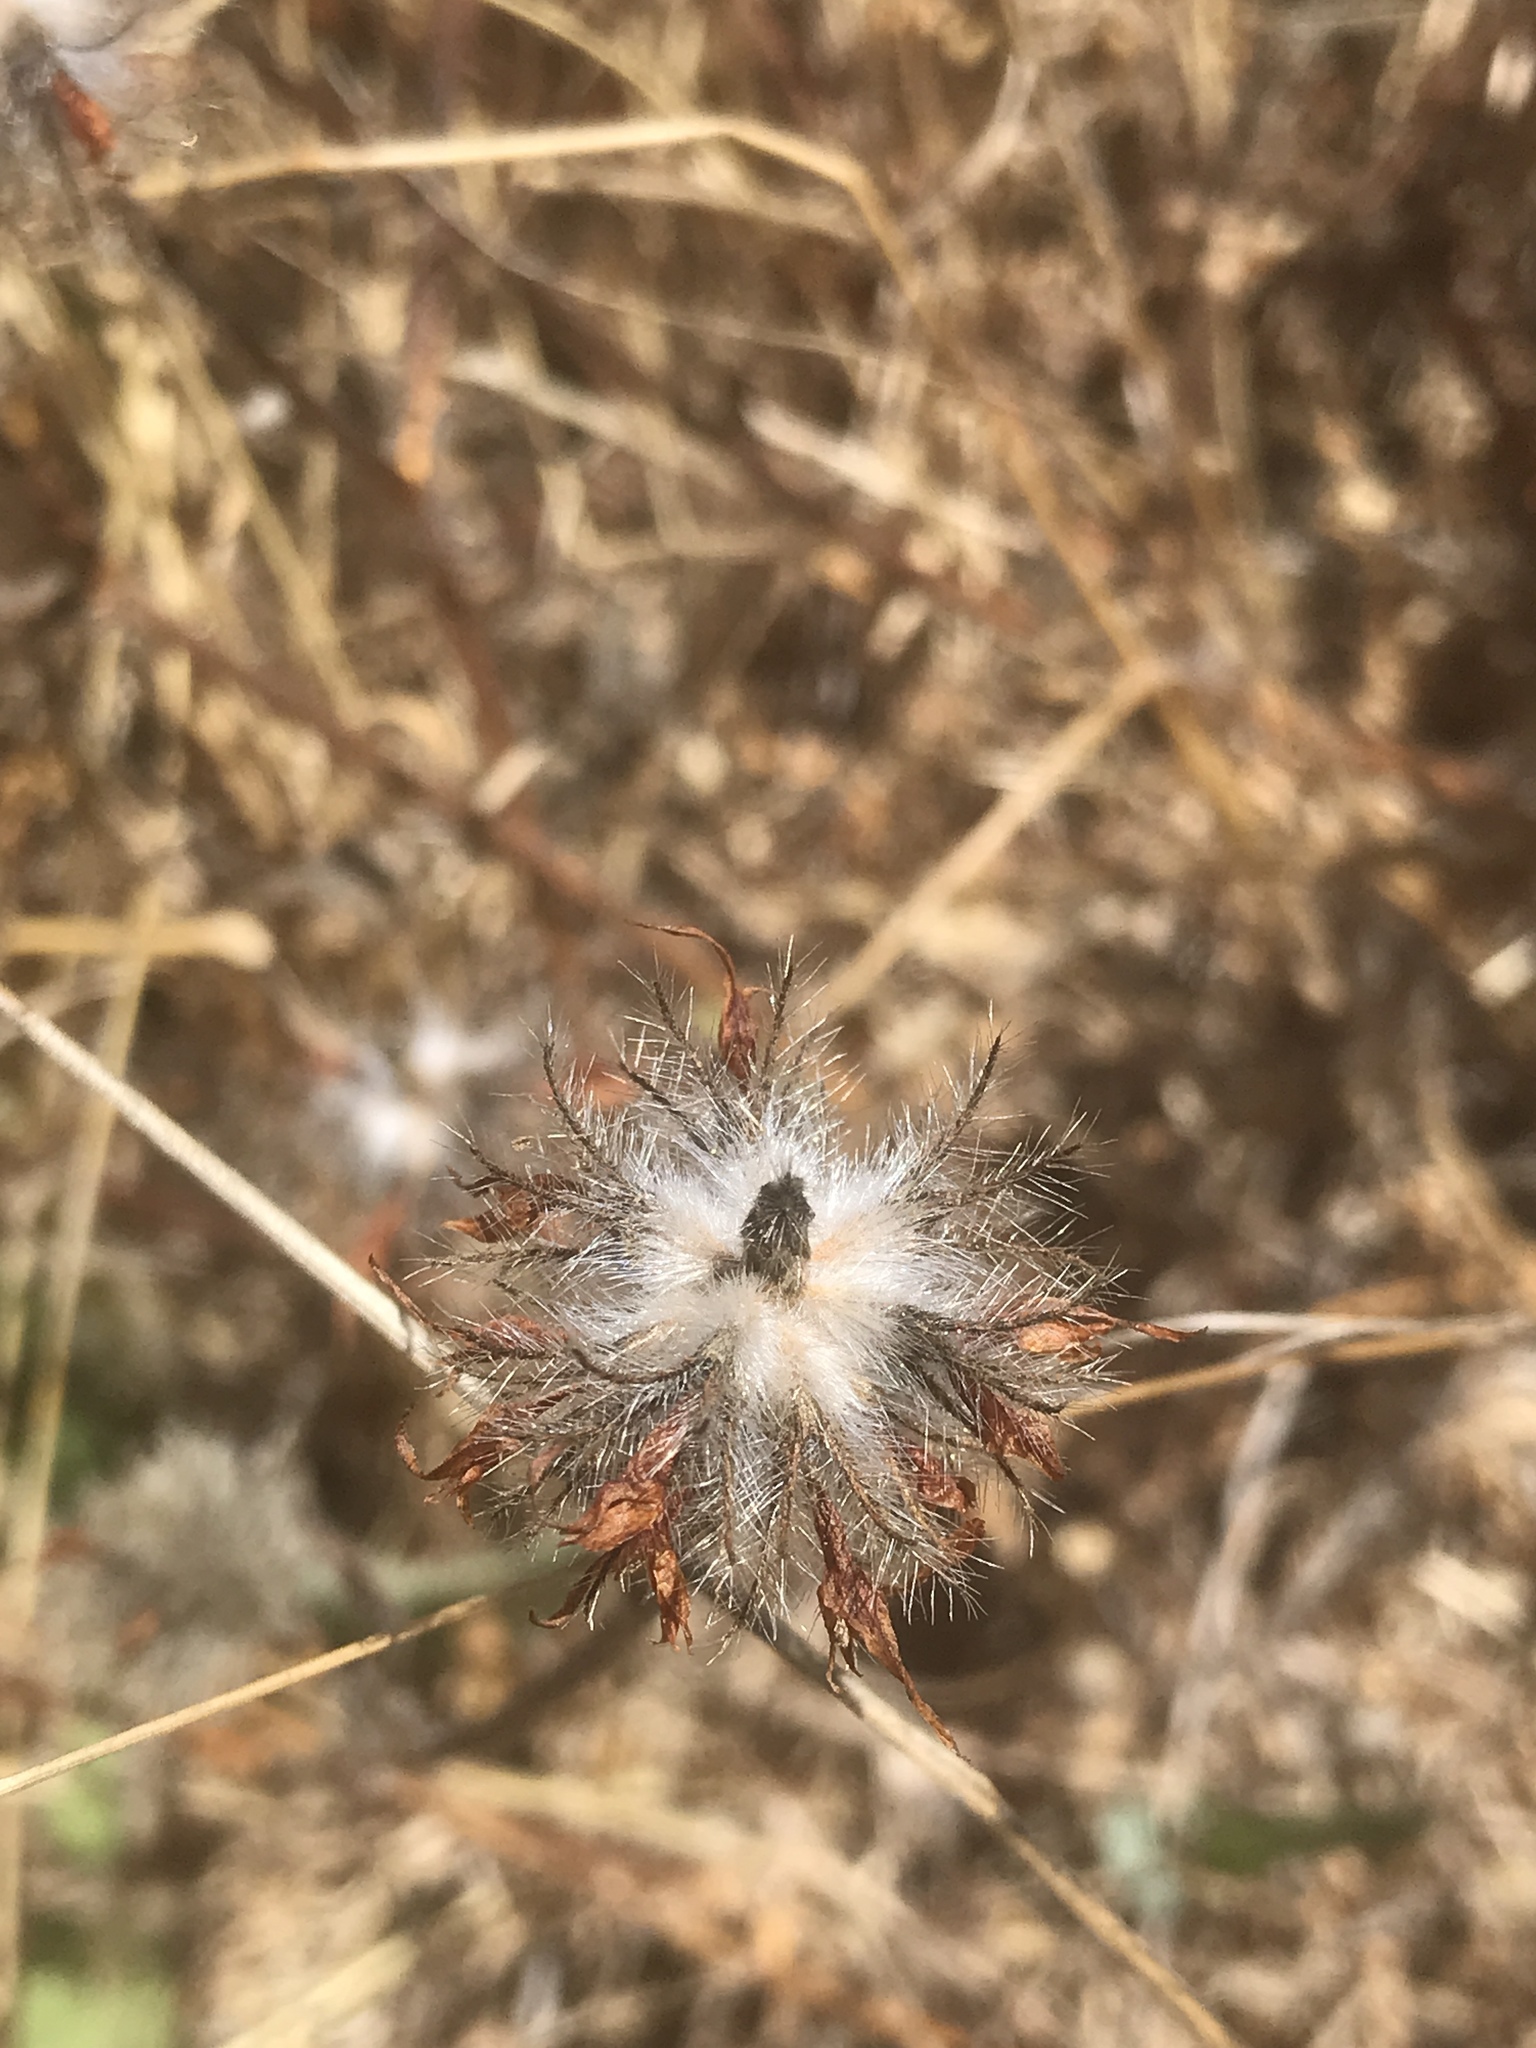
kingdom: Plantae
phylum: Tracheophyta
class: Magnoliopsida
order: Fabales
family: Fabaceae
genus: Trifolium
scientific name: Trifolium hirtum
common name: Rose clover
